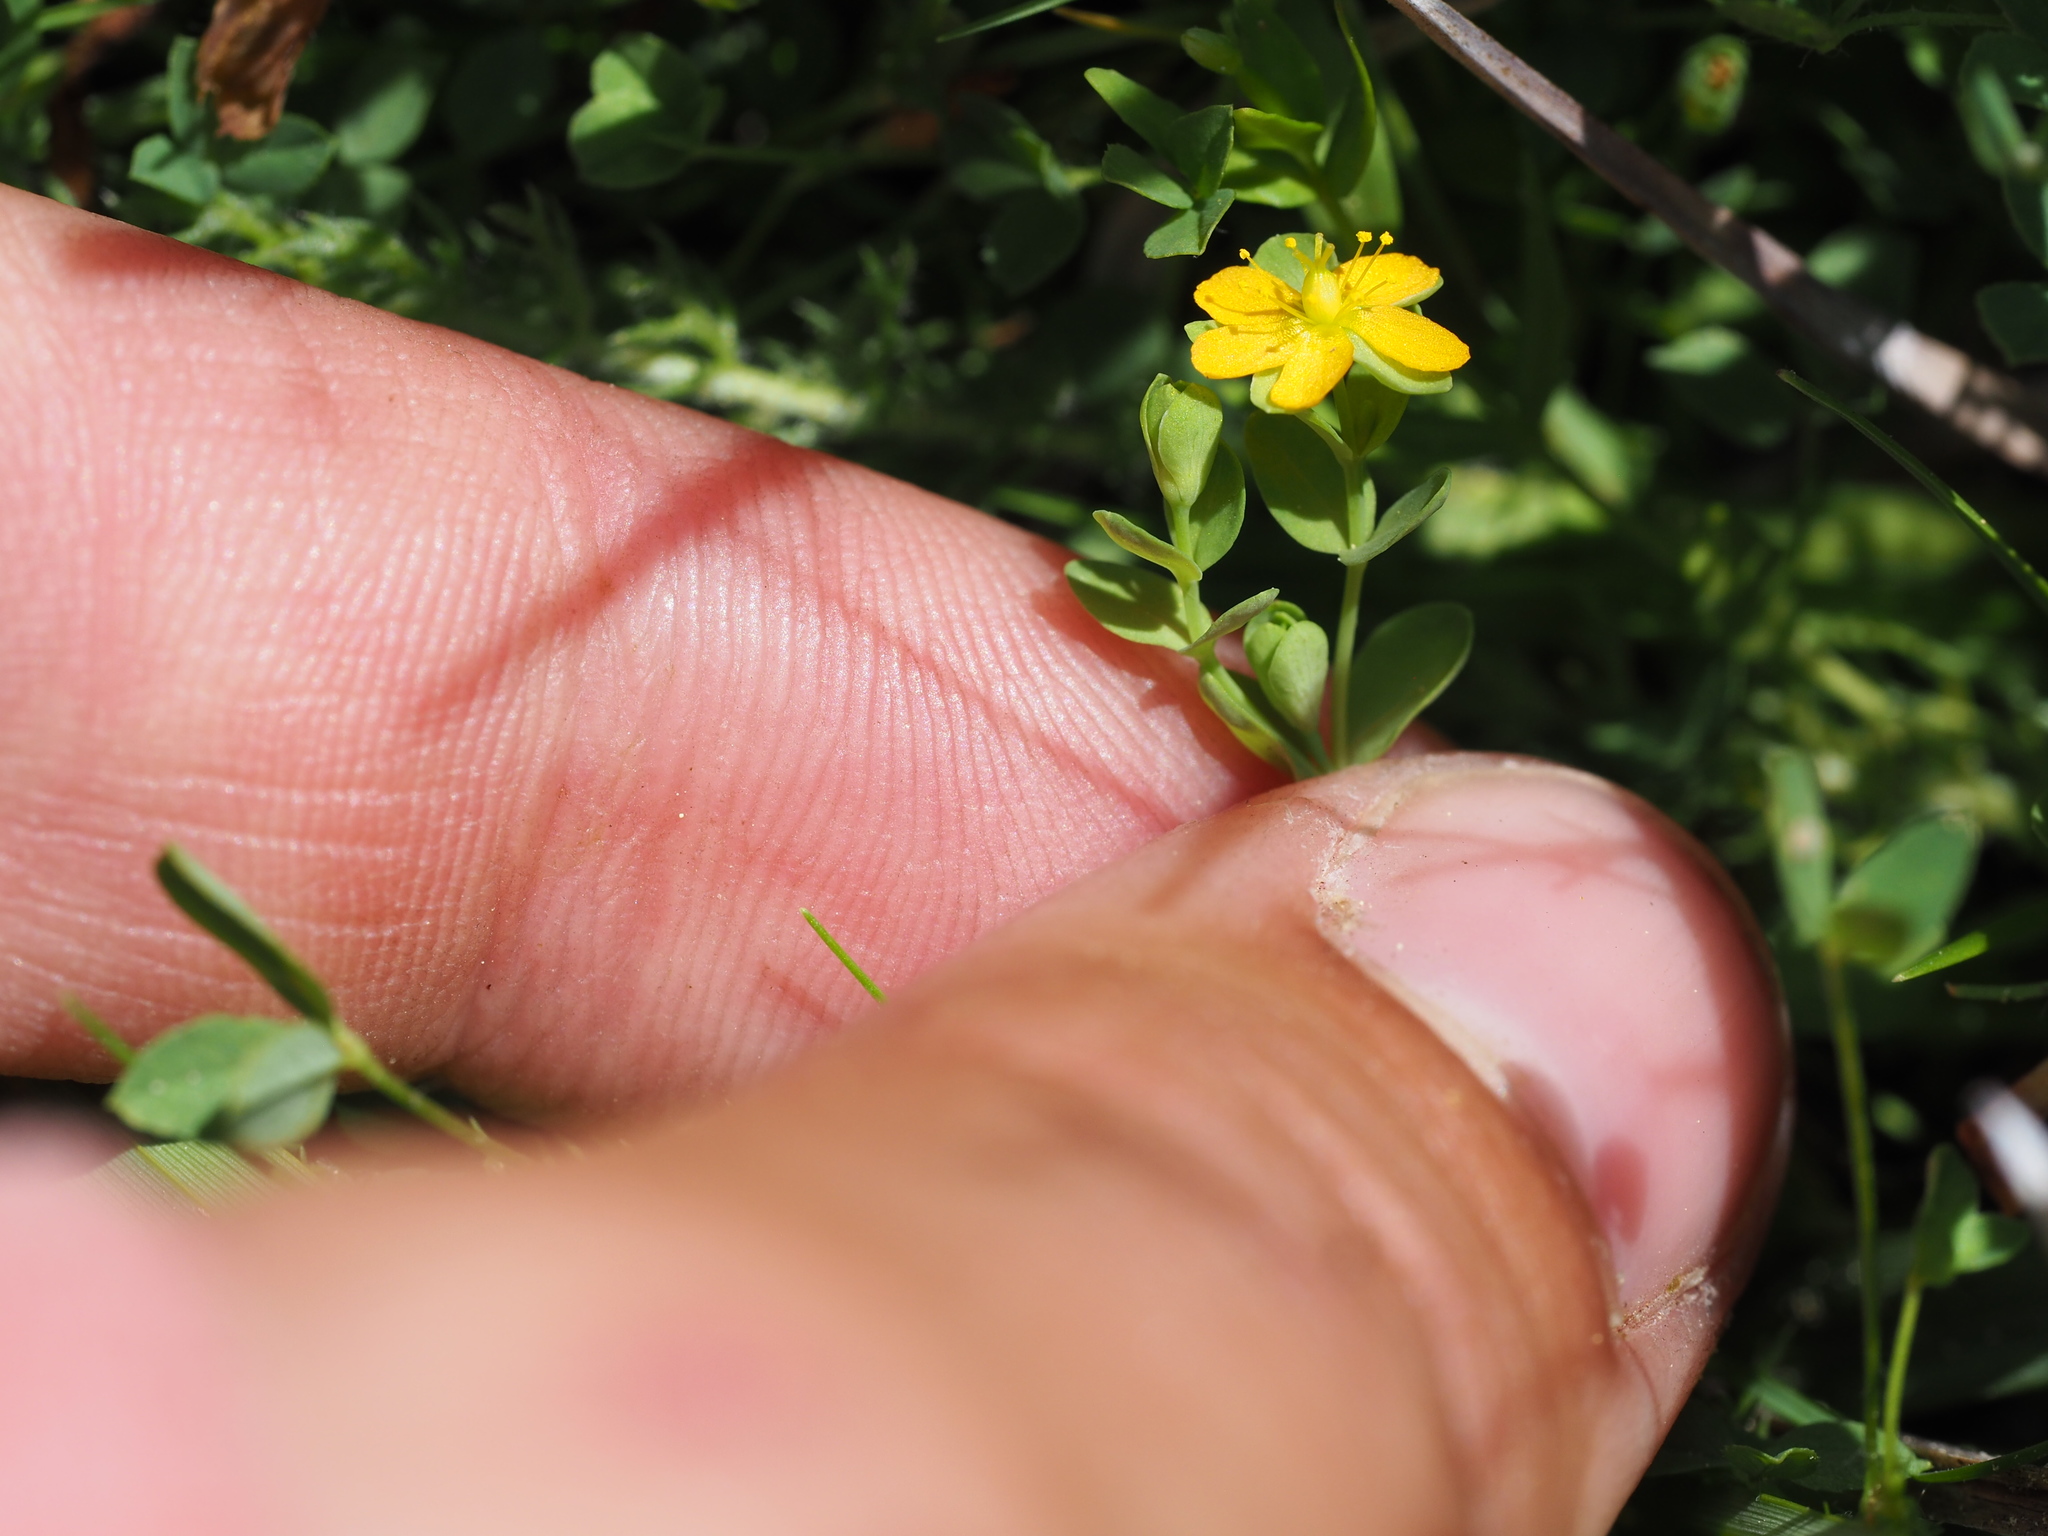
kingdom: Plantae
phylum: Tracheophyta
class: Magnoliopsida
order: Malpighiales
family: Hypericaceae
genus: Hypericum
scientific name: Hypericum anagalloides
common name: Bog st. john's-wort
